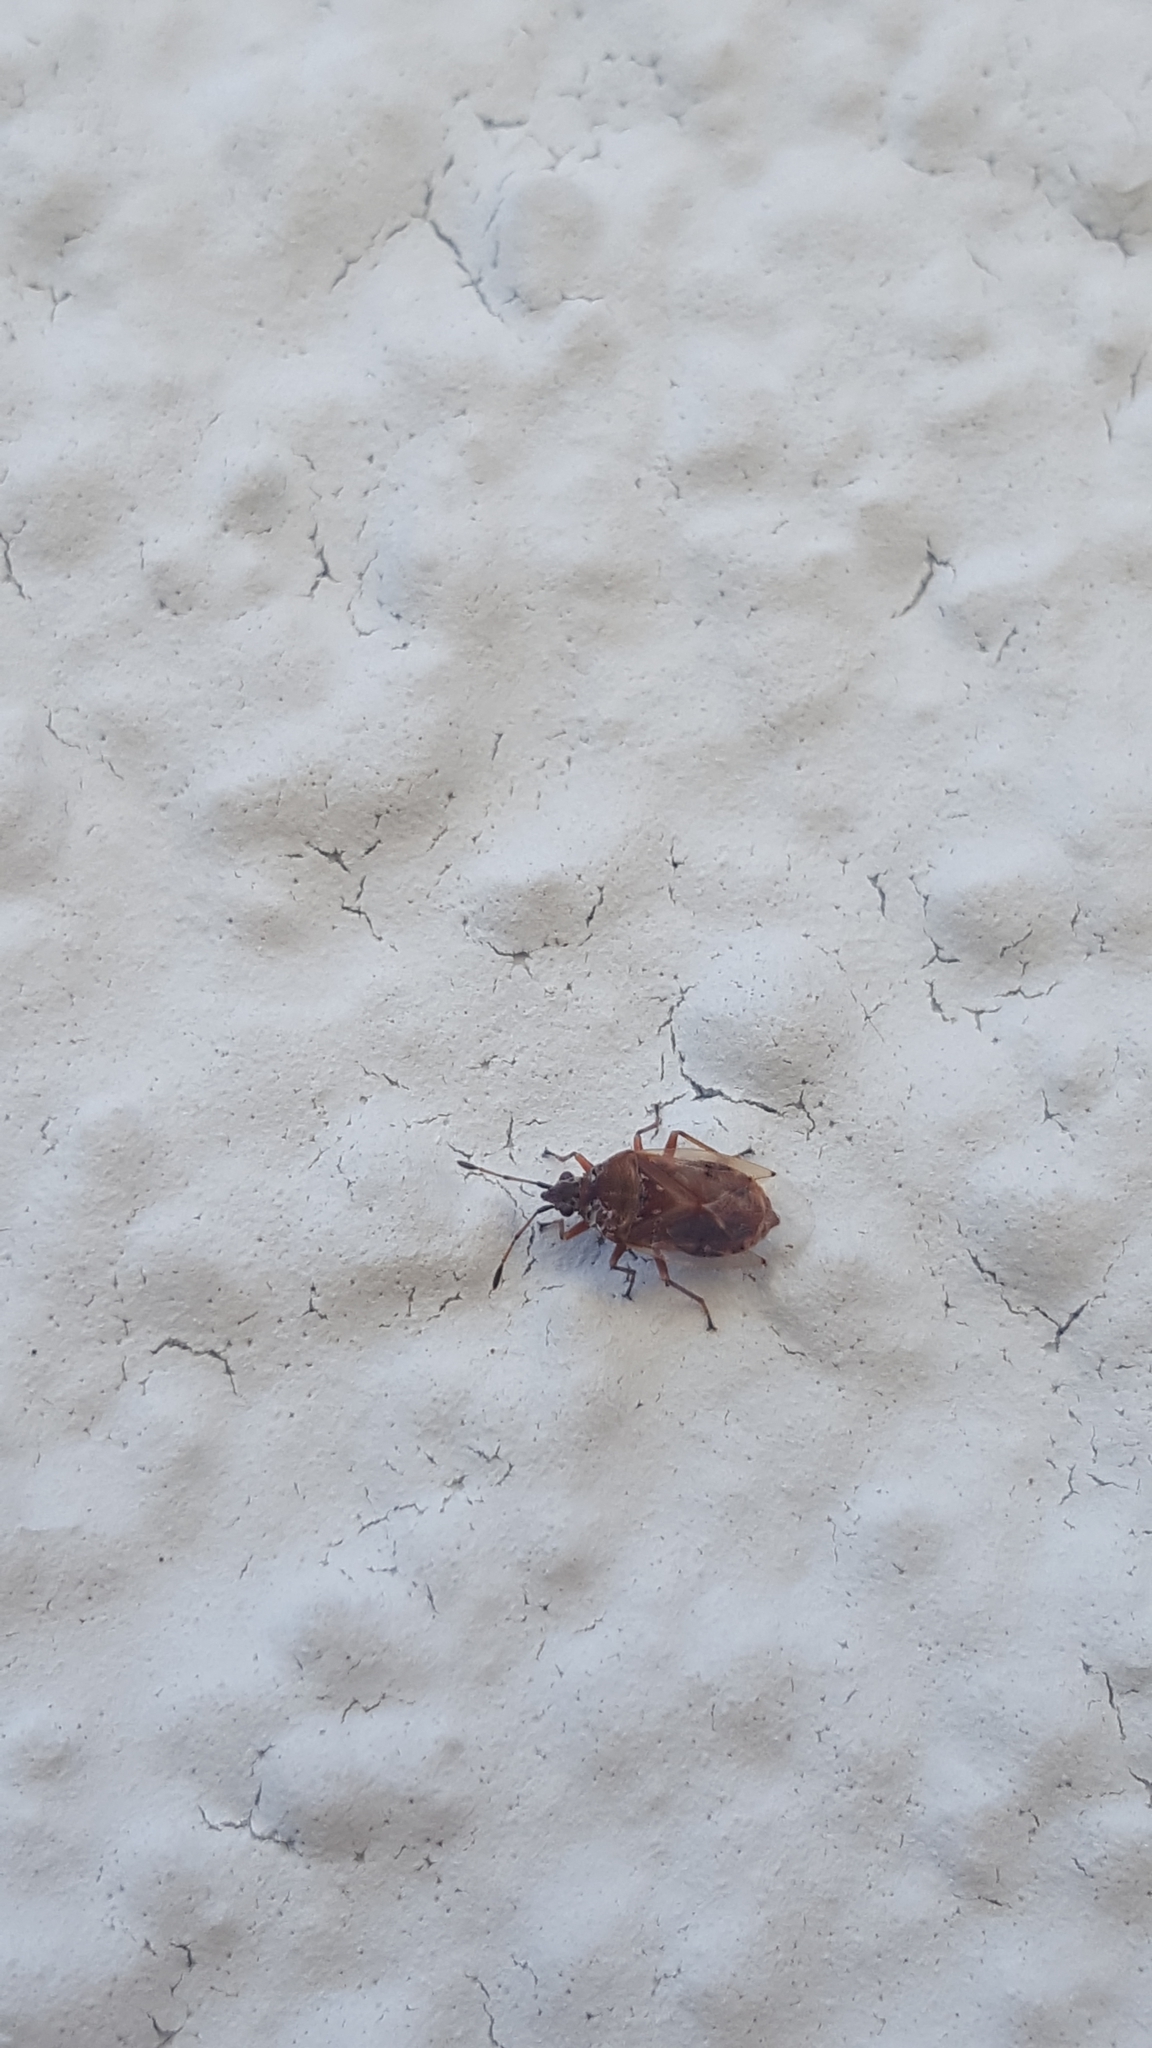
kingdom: Animalia
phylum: Arthropoda
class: Insecta
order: Hemiptera
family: Lygaeidae
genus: Kleidocerys
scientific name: Kleidocerys resedae
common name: Birch catkin bug
